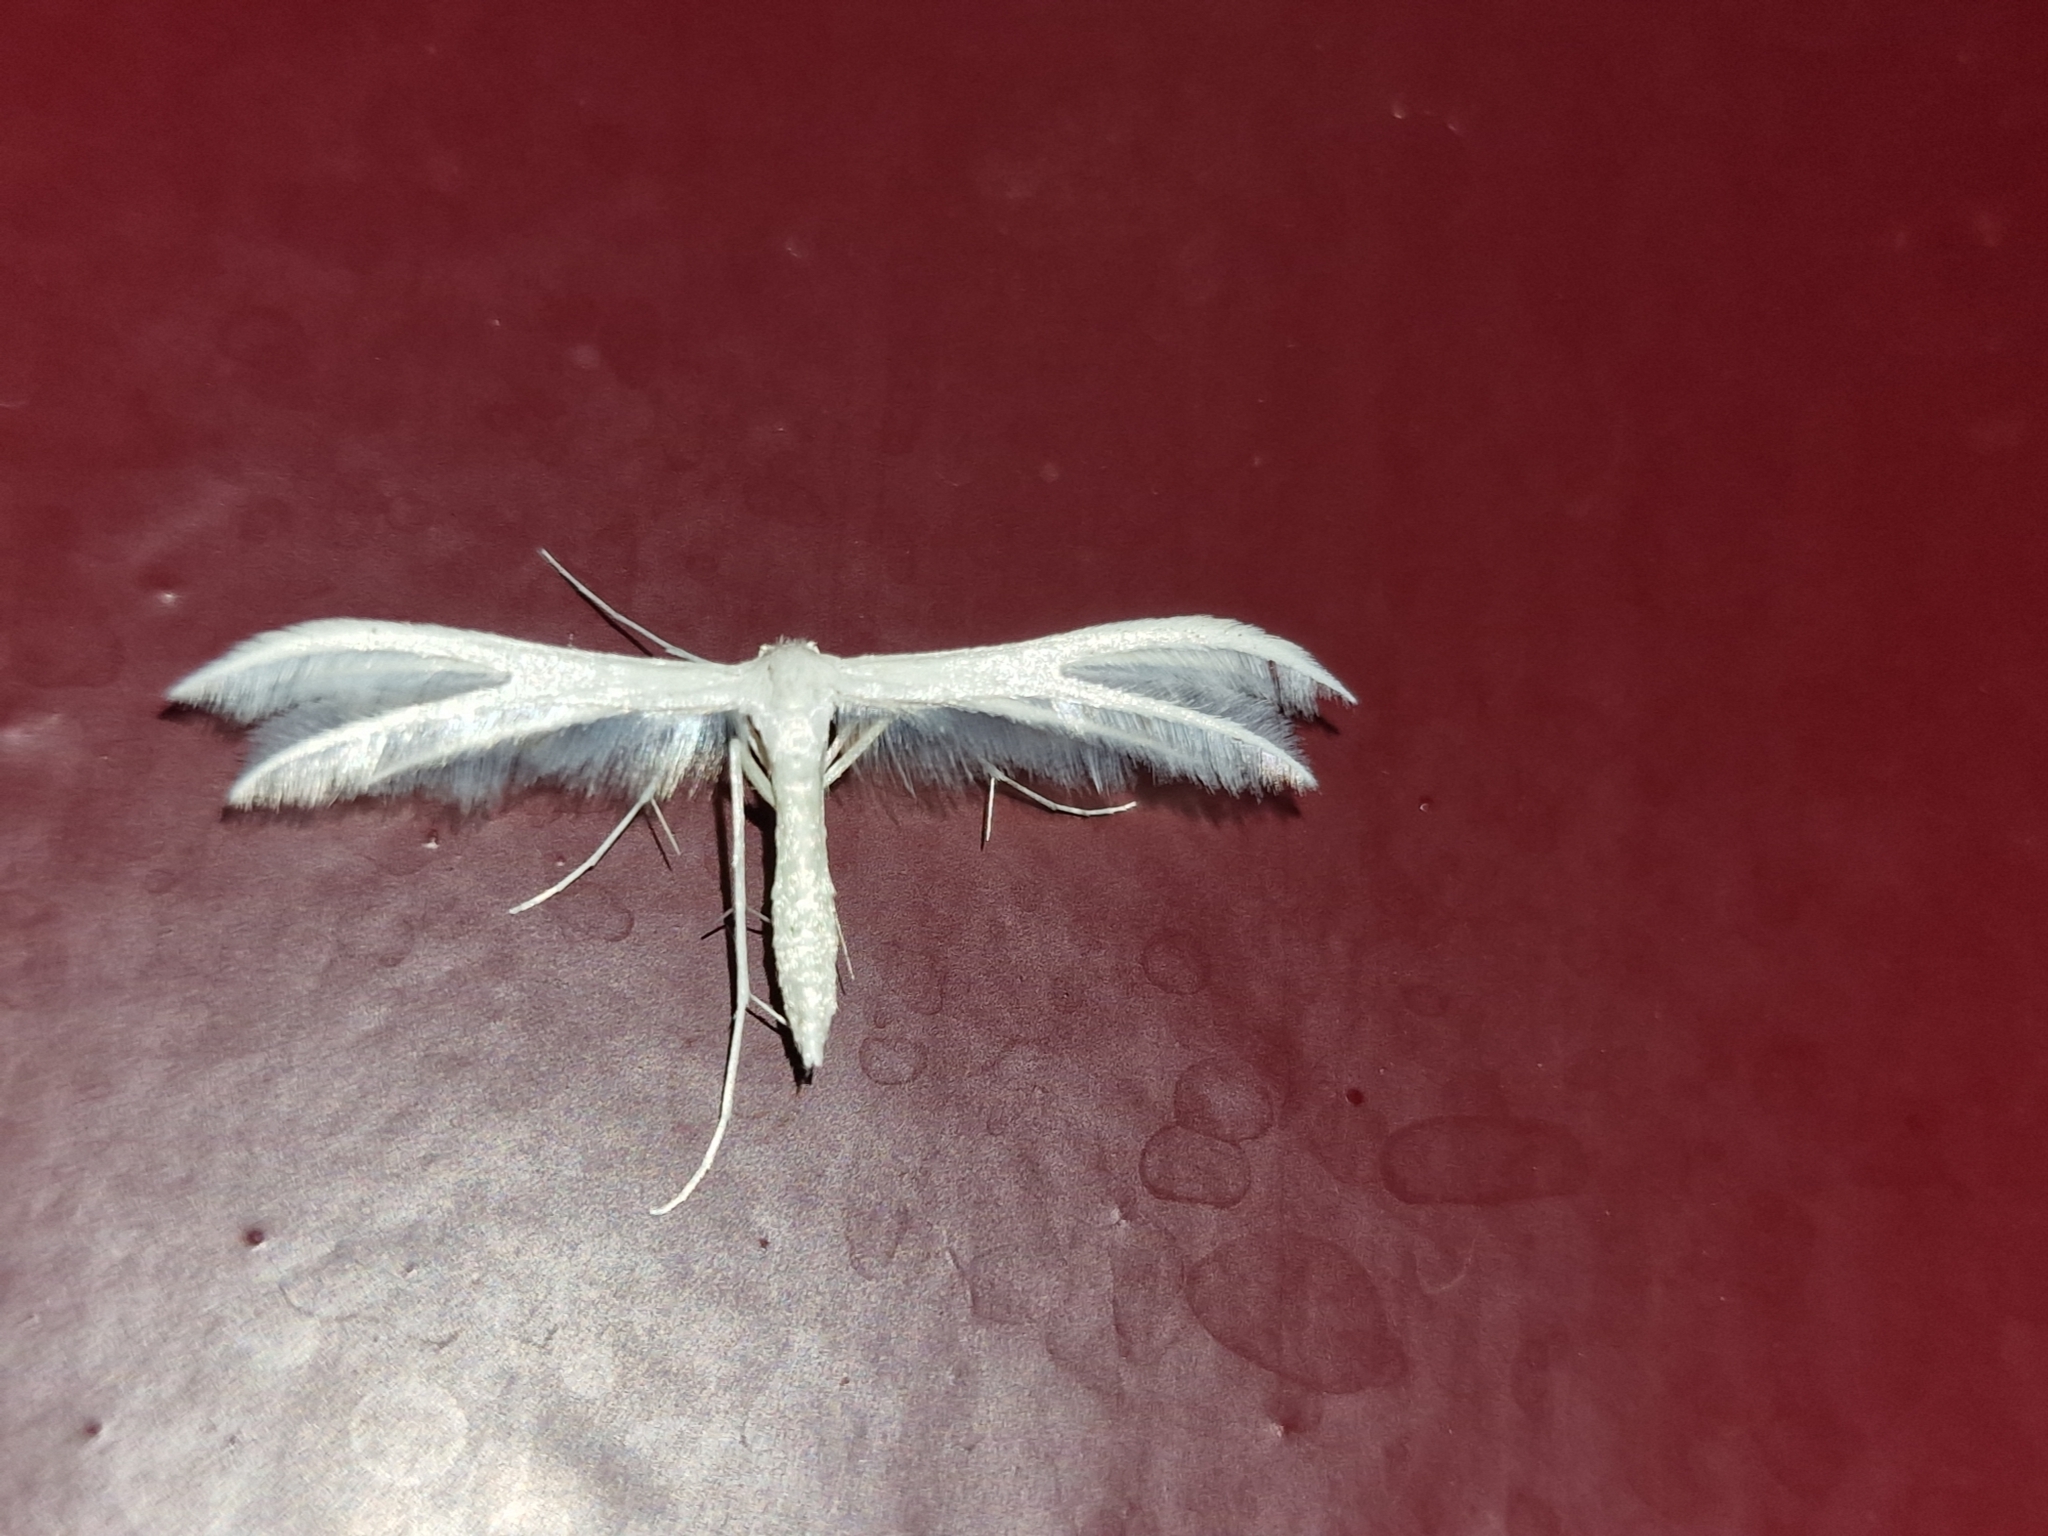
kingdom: Animalia
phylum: Arthropoda
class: Insecta
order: Lepidoptera
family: Pterophoridae
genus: Pterophorus
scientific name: Pterophorus pentadactyla
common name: White plume moth
